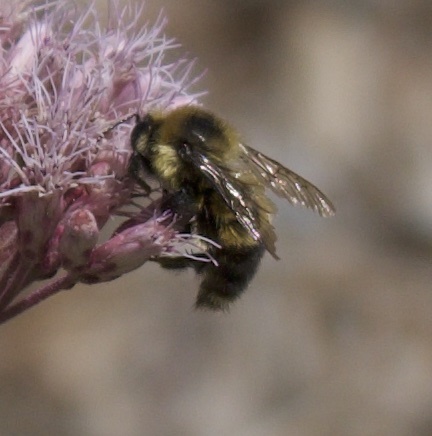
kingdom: Animalia
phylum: Arthropoda
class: Insecta
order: Hymenoptera
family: Apidae
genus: Bombus
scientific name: Bombus rufocinctus
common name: Red-belted bumble bee
